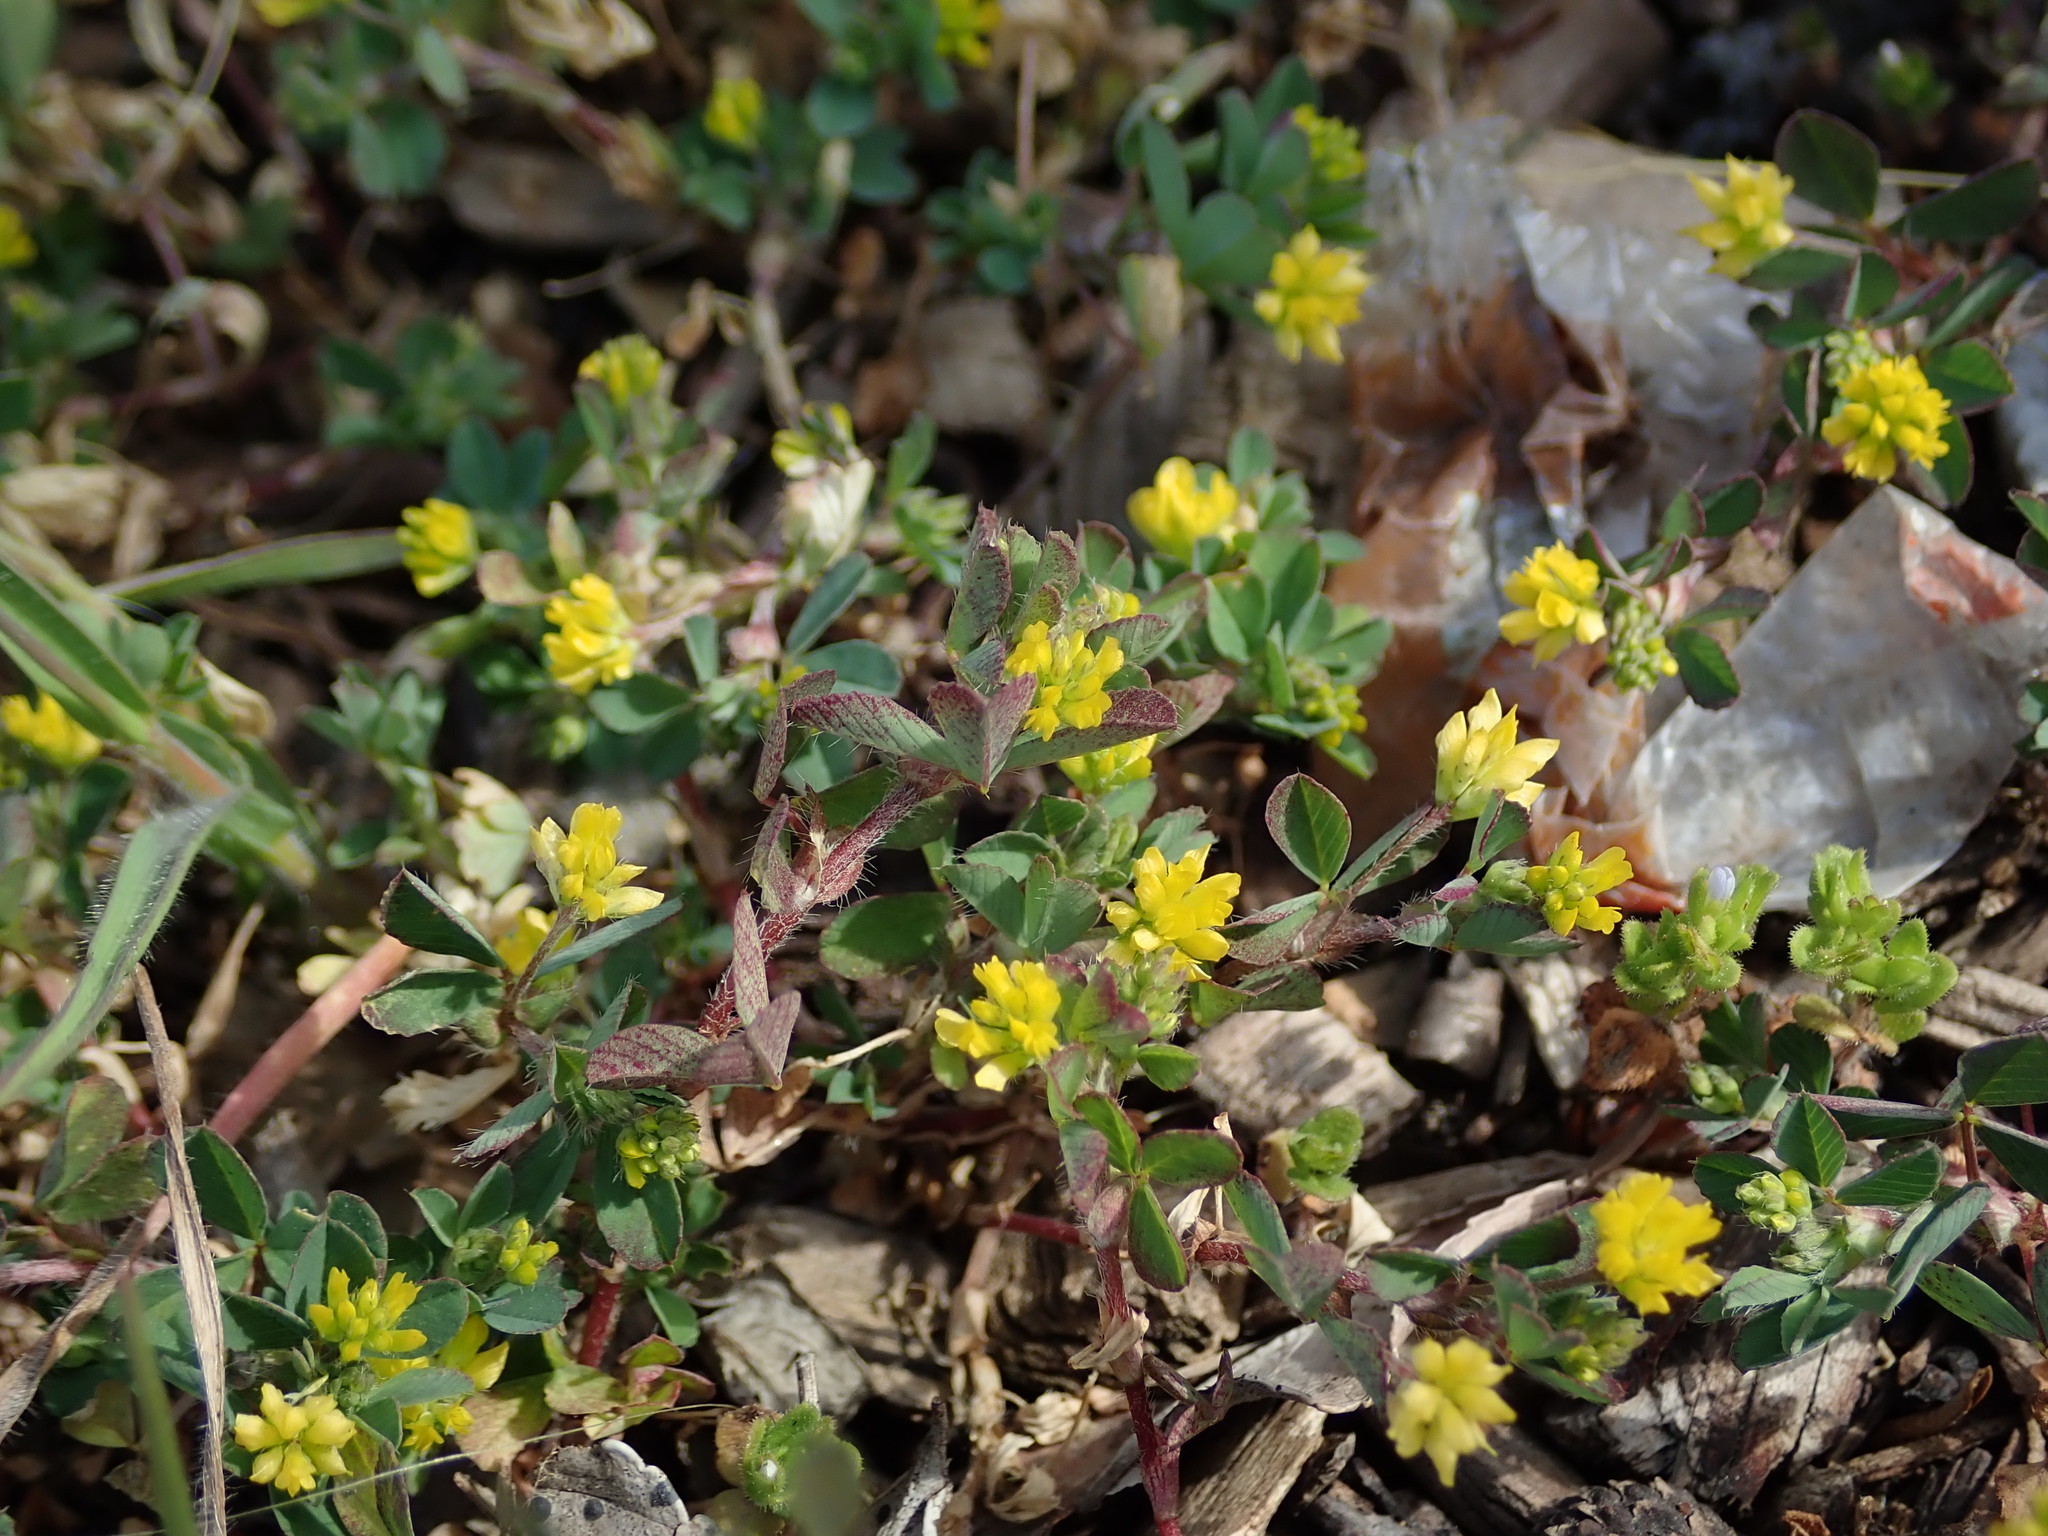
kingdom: Plantae
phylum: Tracheophyta
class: Magnoliopsida
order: Fabales
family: Fabaceae
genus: Trifolium
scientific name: Trifolium dubium
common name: Suckling clover
